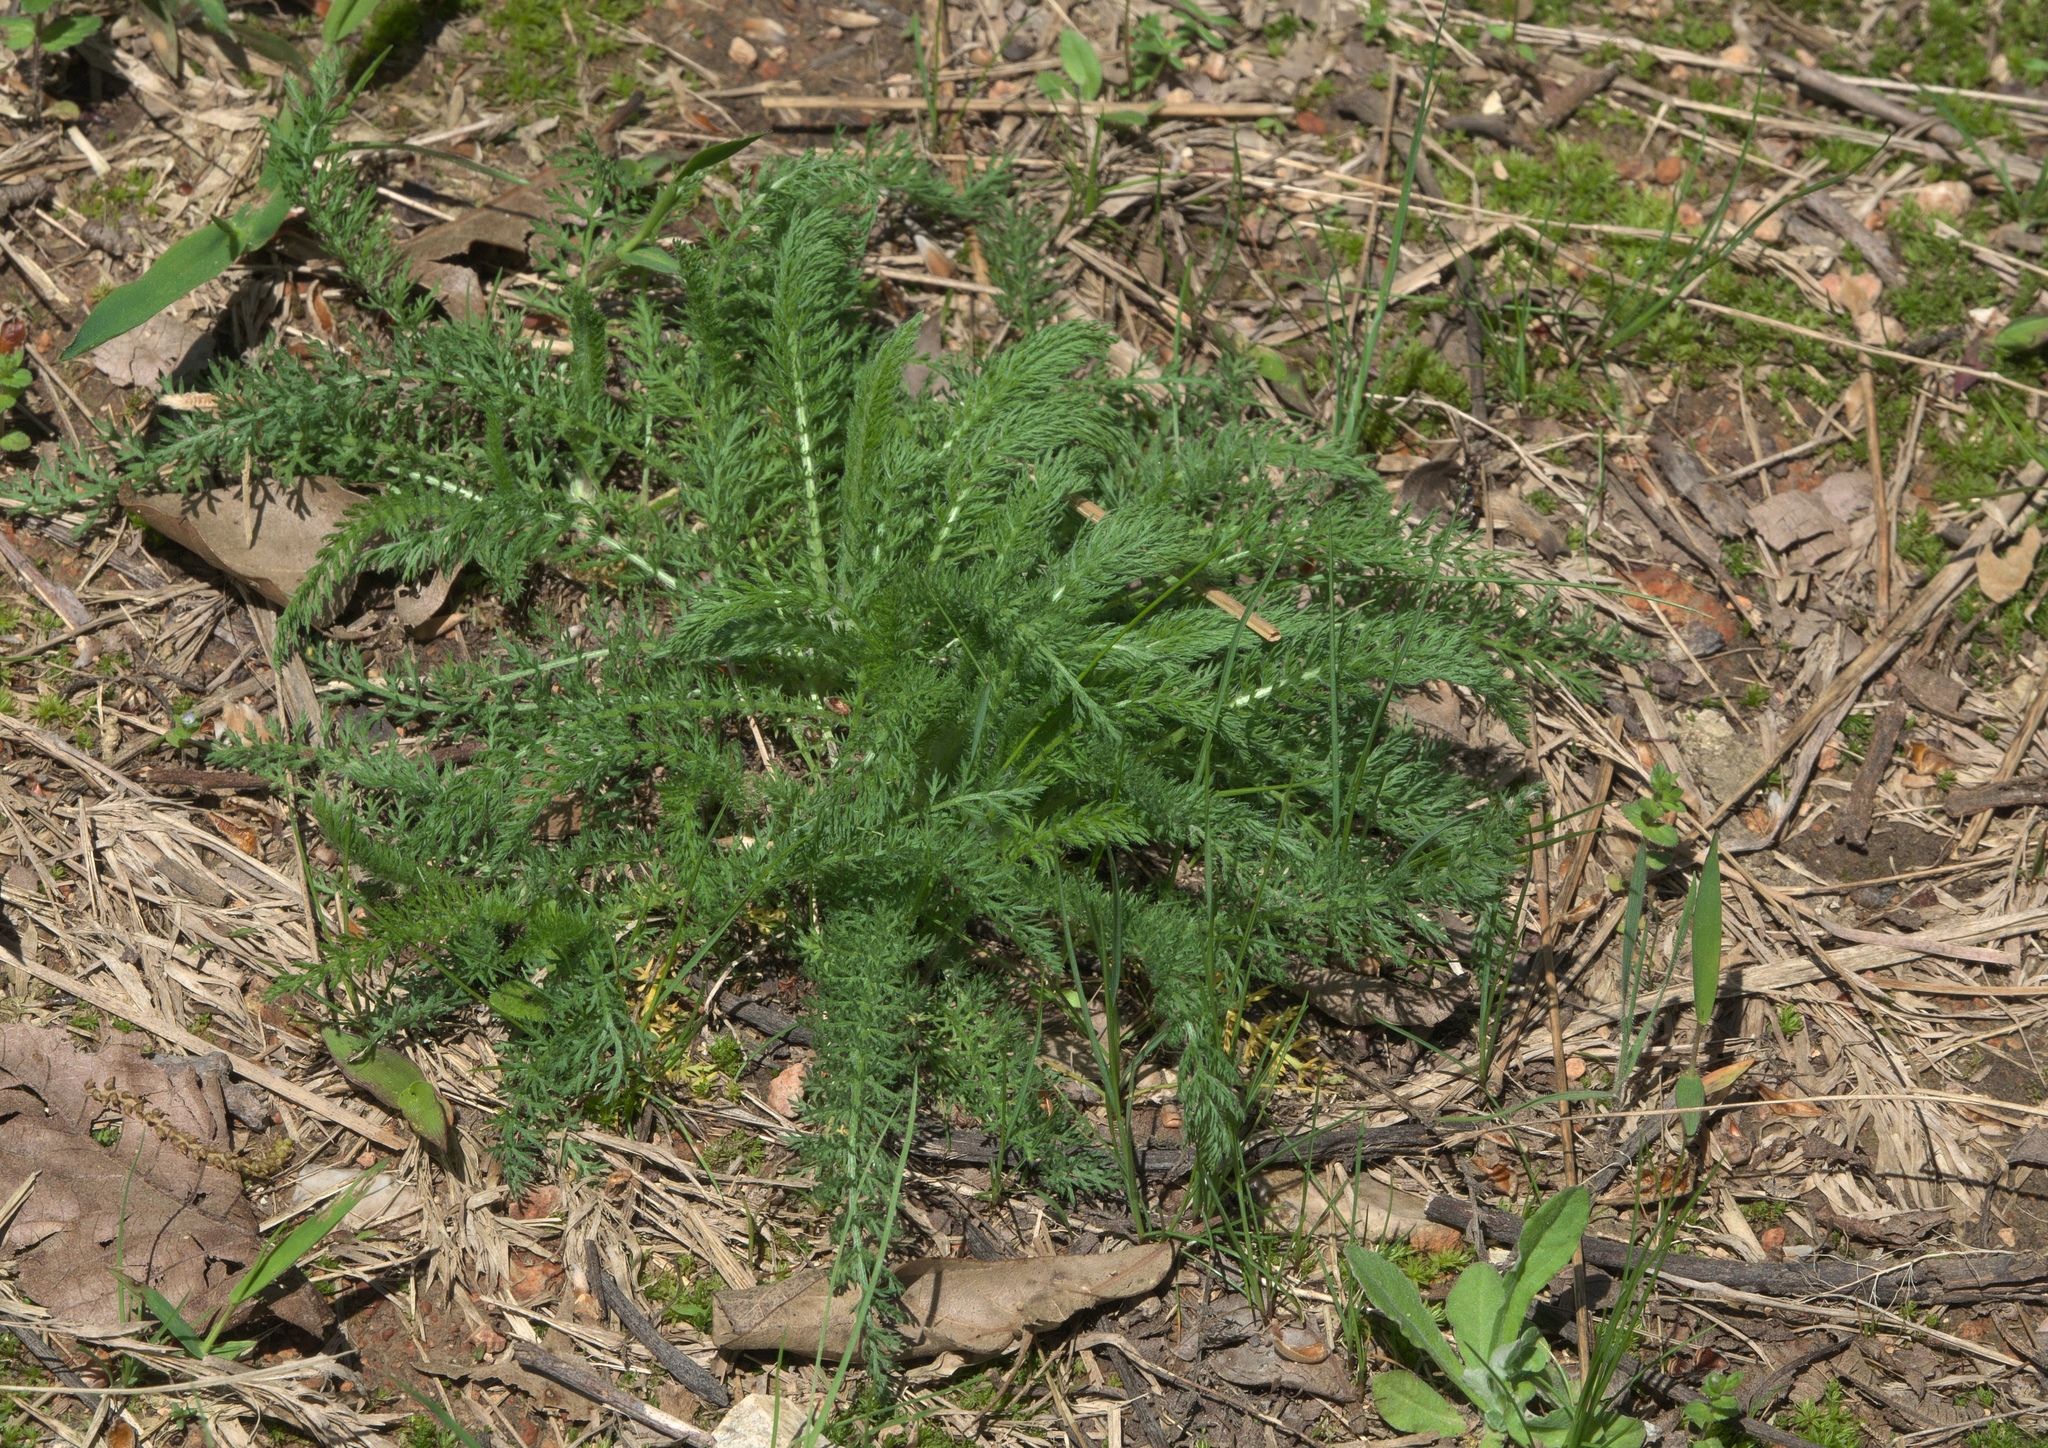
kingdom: Plantae
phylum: Tracheophyta
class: Magnoliopsida
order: Asterales
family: Asteraceae
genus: Achillea
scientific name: Achillea millefolium
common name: Yarrow
